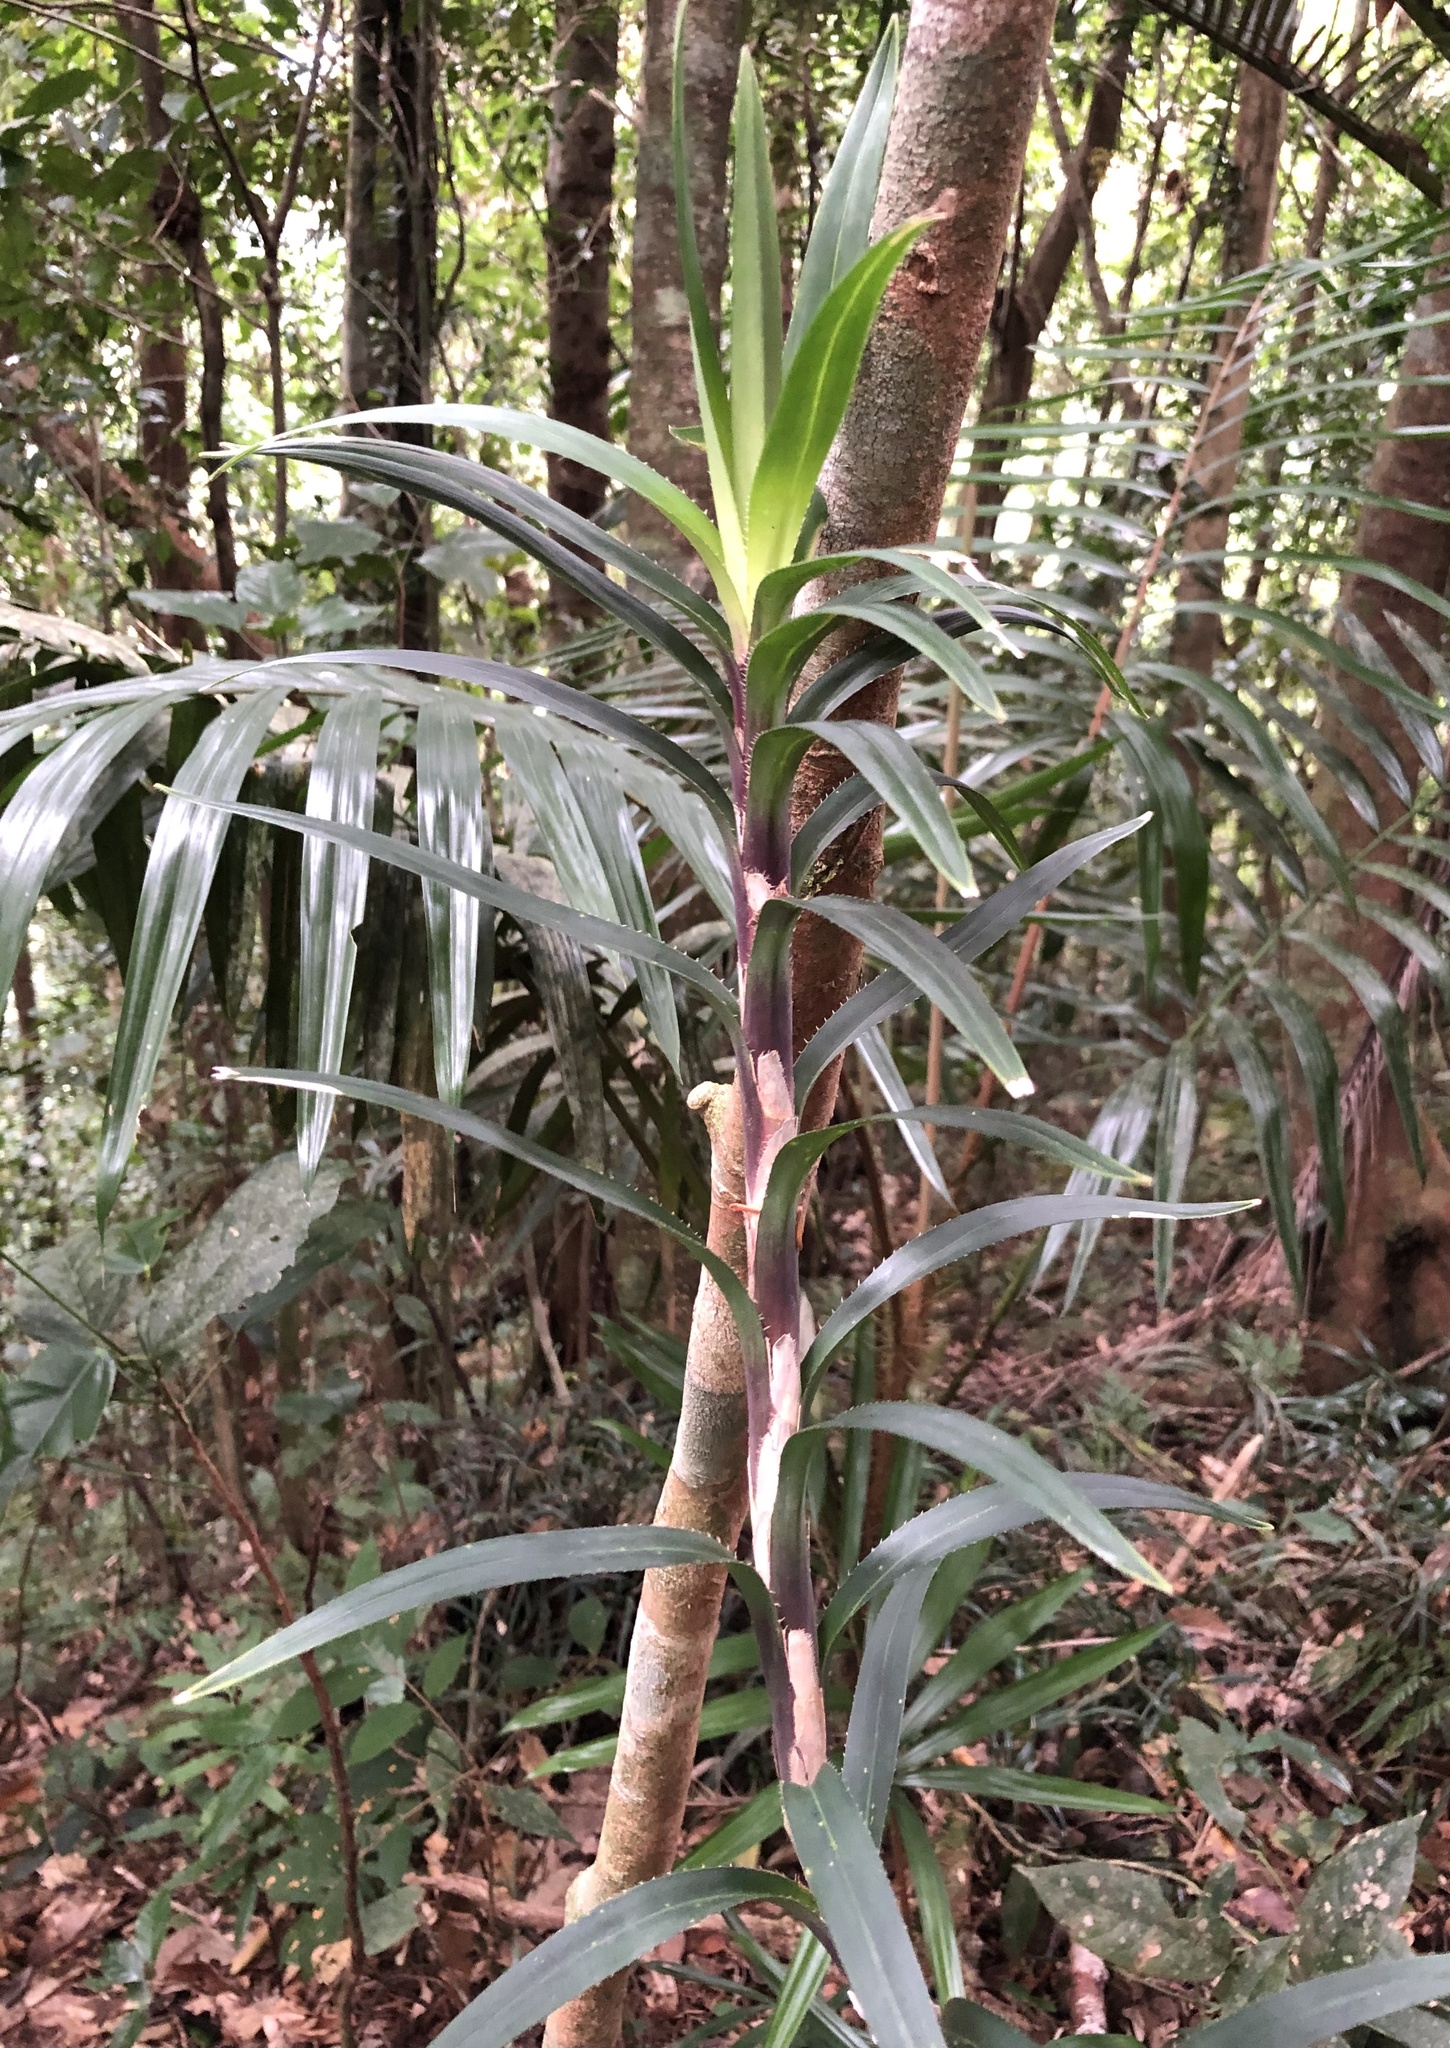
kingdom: Plantae
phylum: Tracheophyta
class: Liliopsida
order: Pandanales
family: Pandanaceae
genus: Freycinetia
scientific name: Freycinetia excelsa
